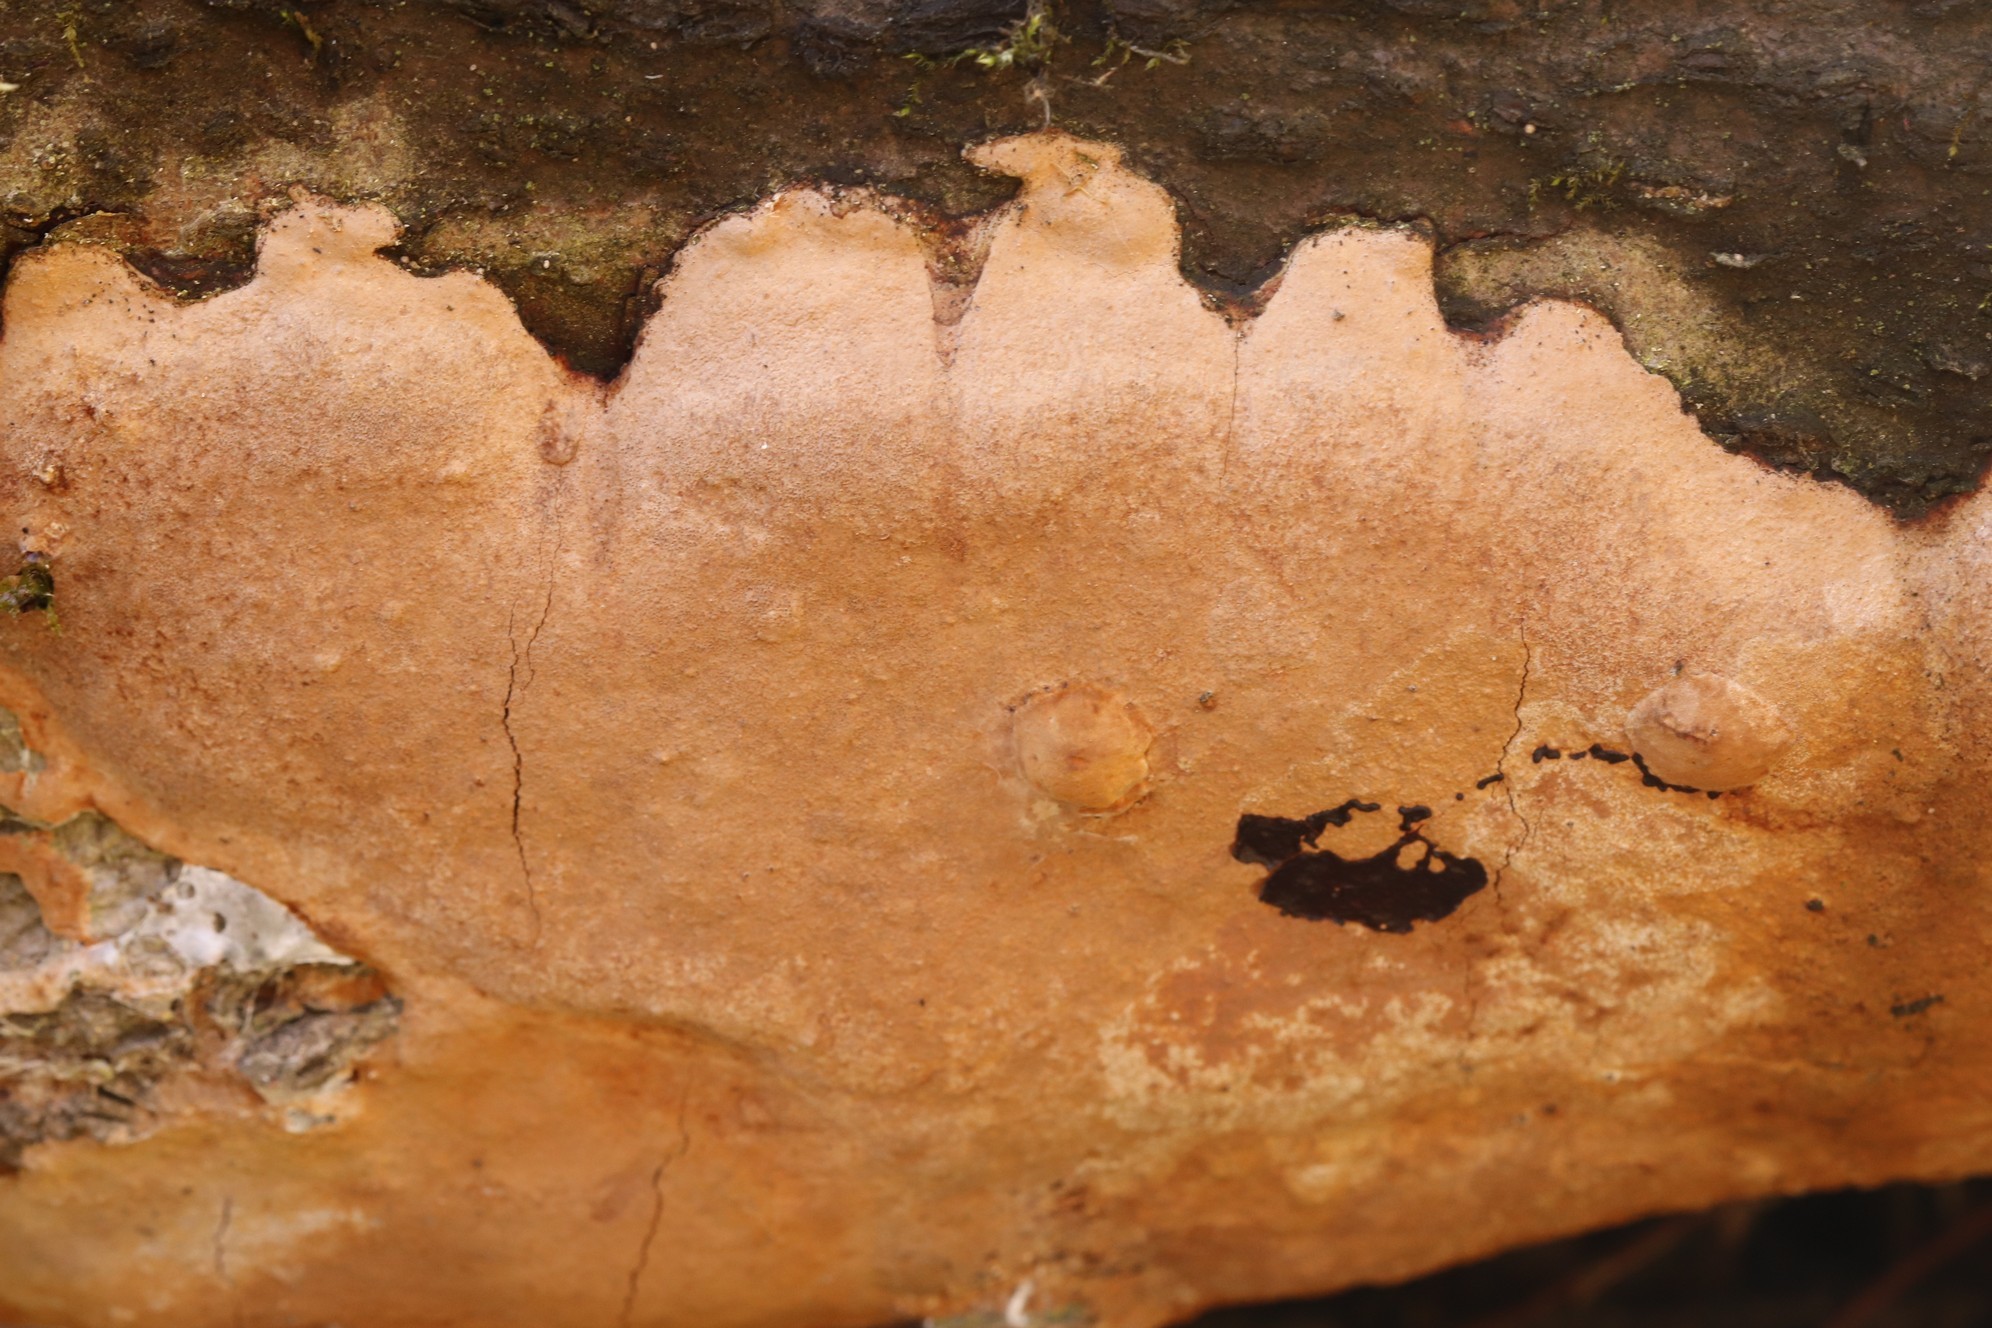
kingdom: Fungi
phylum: Basidiomycota
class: Agaricomycetes
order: Hymenochaetales
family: Hymenochaetaceae
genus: Fomitiporia
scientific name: Fomitiporia punctata
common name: Elbowpatch crust
